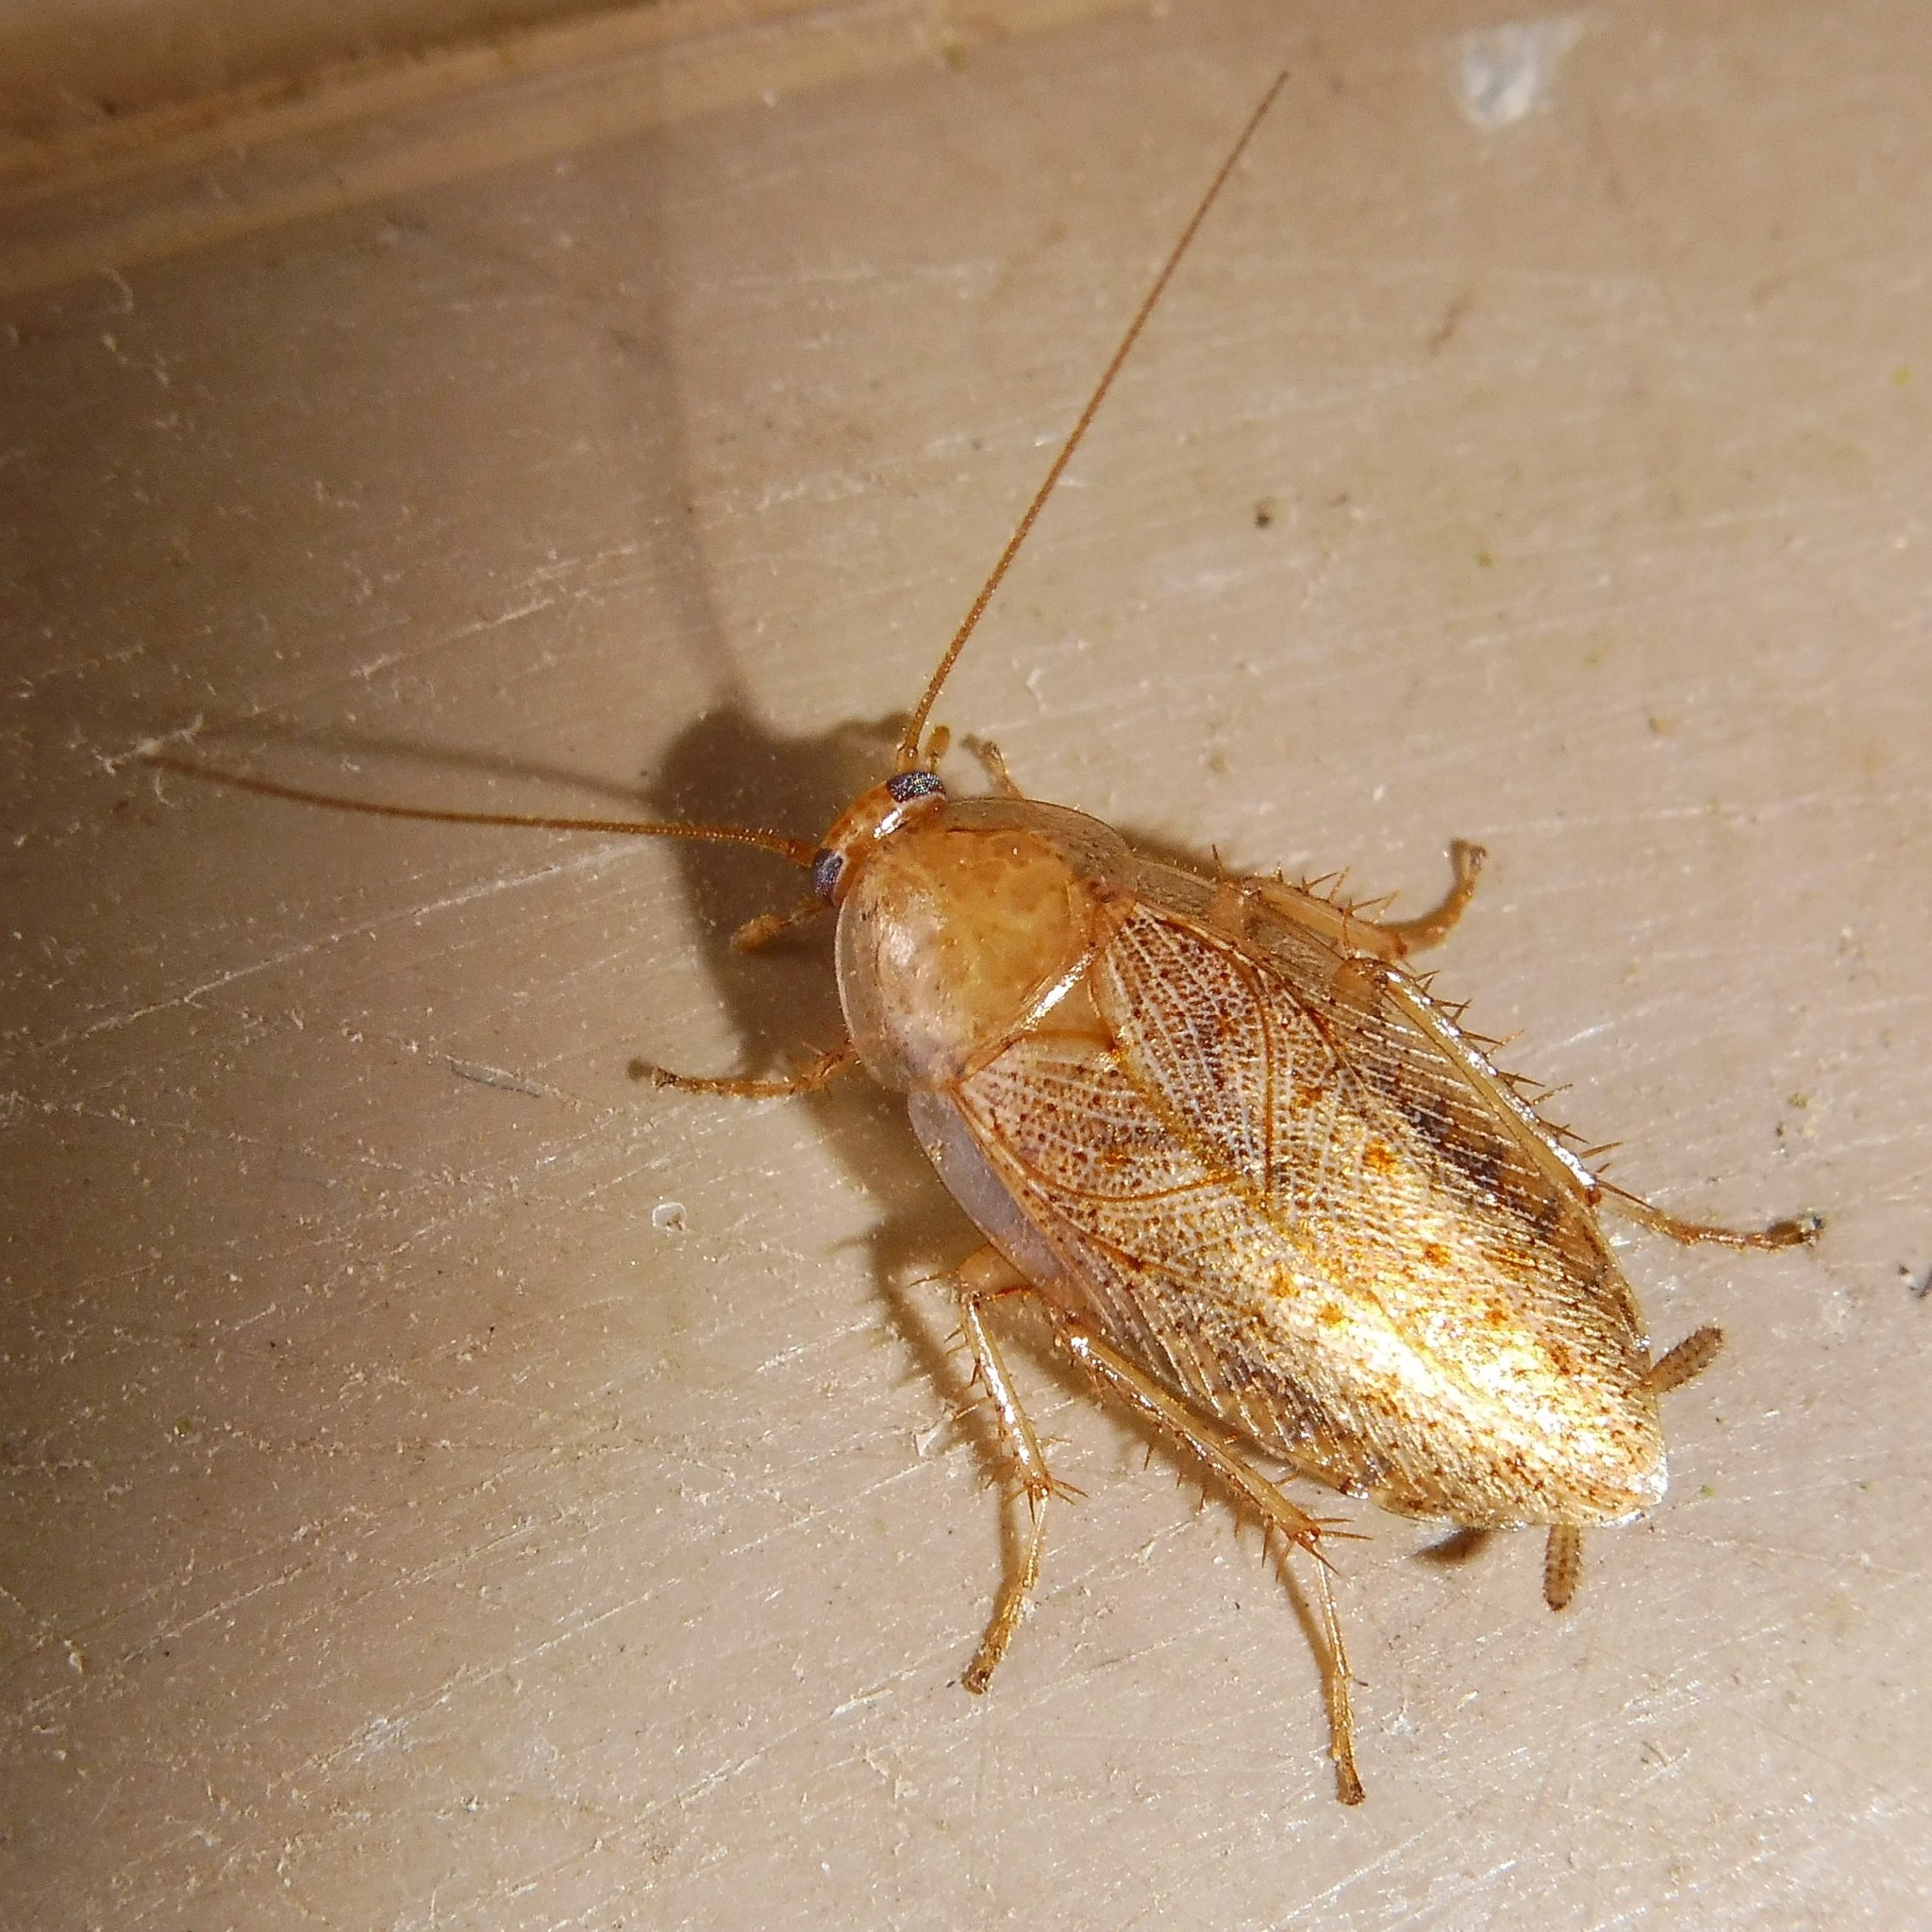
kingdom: Animalia
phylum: Arthropoda
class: Insecta
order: Blattodea
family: Ectobiidae
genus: Ectobius
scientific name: Ectobius pallidus
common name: Tawny cockroach
